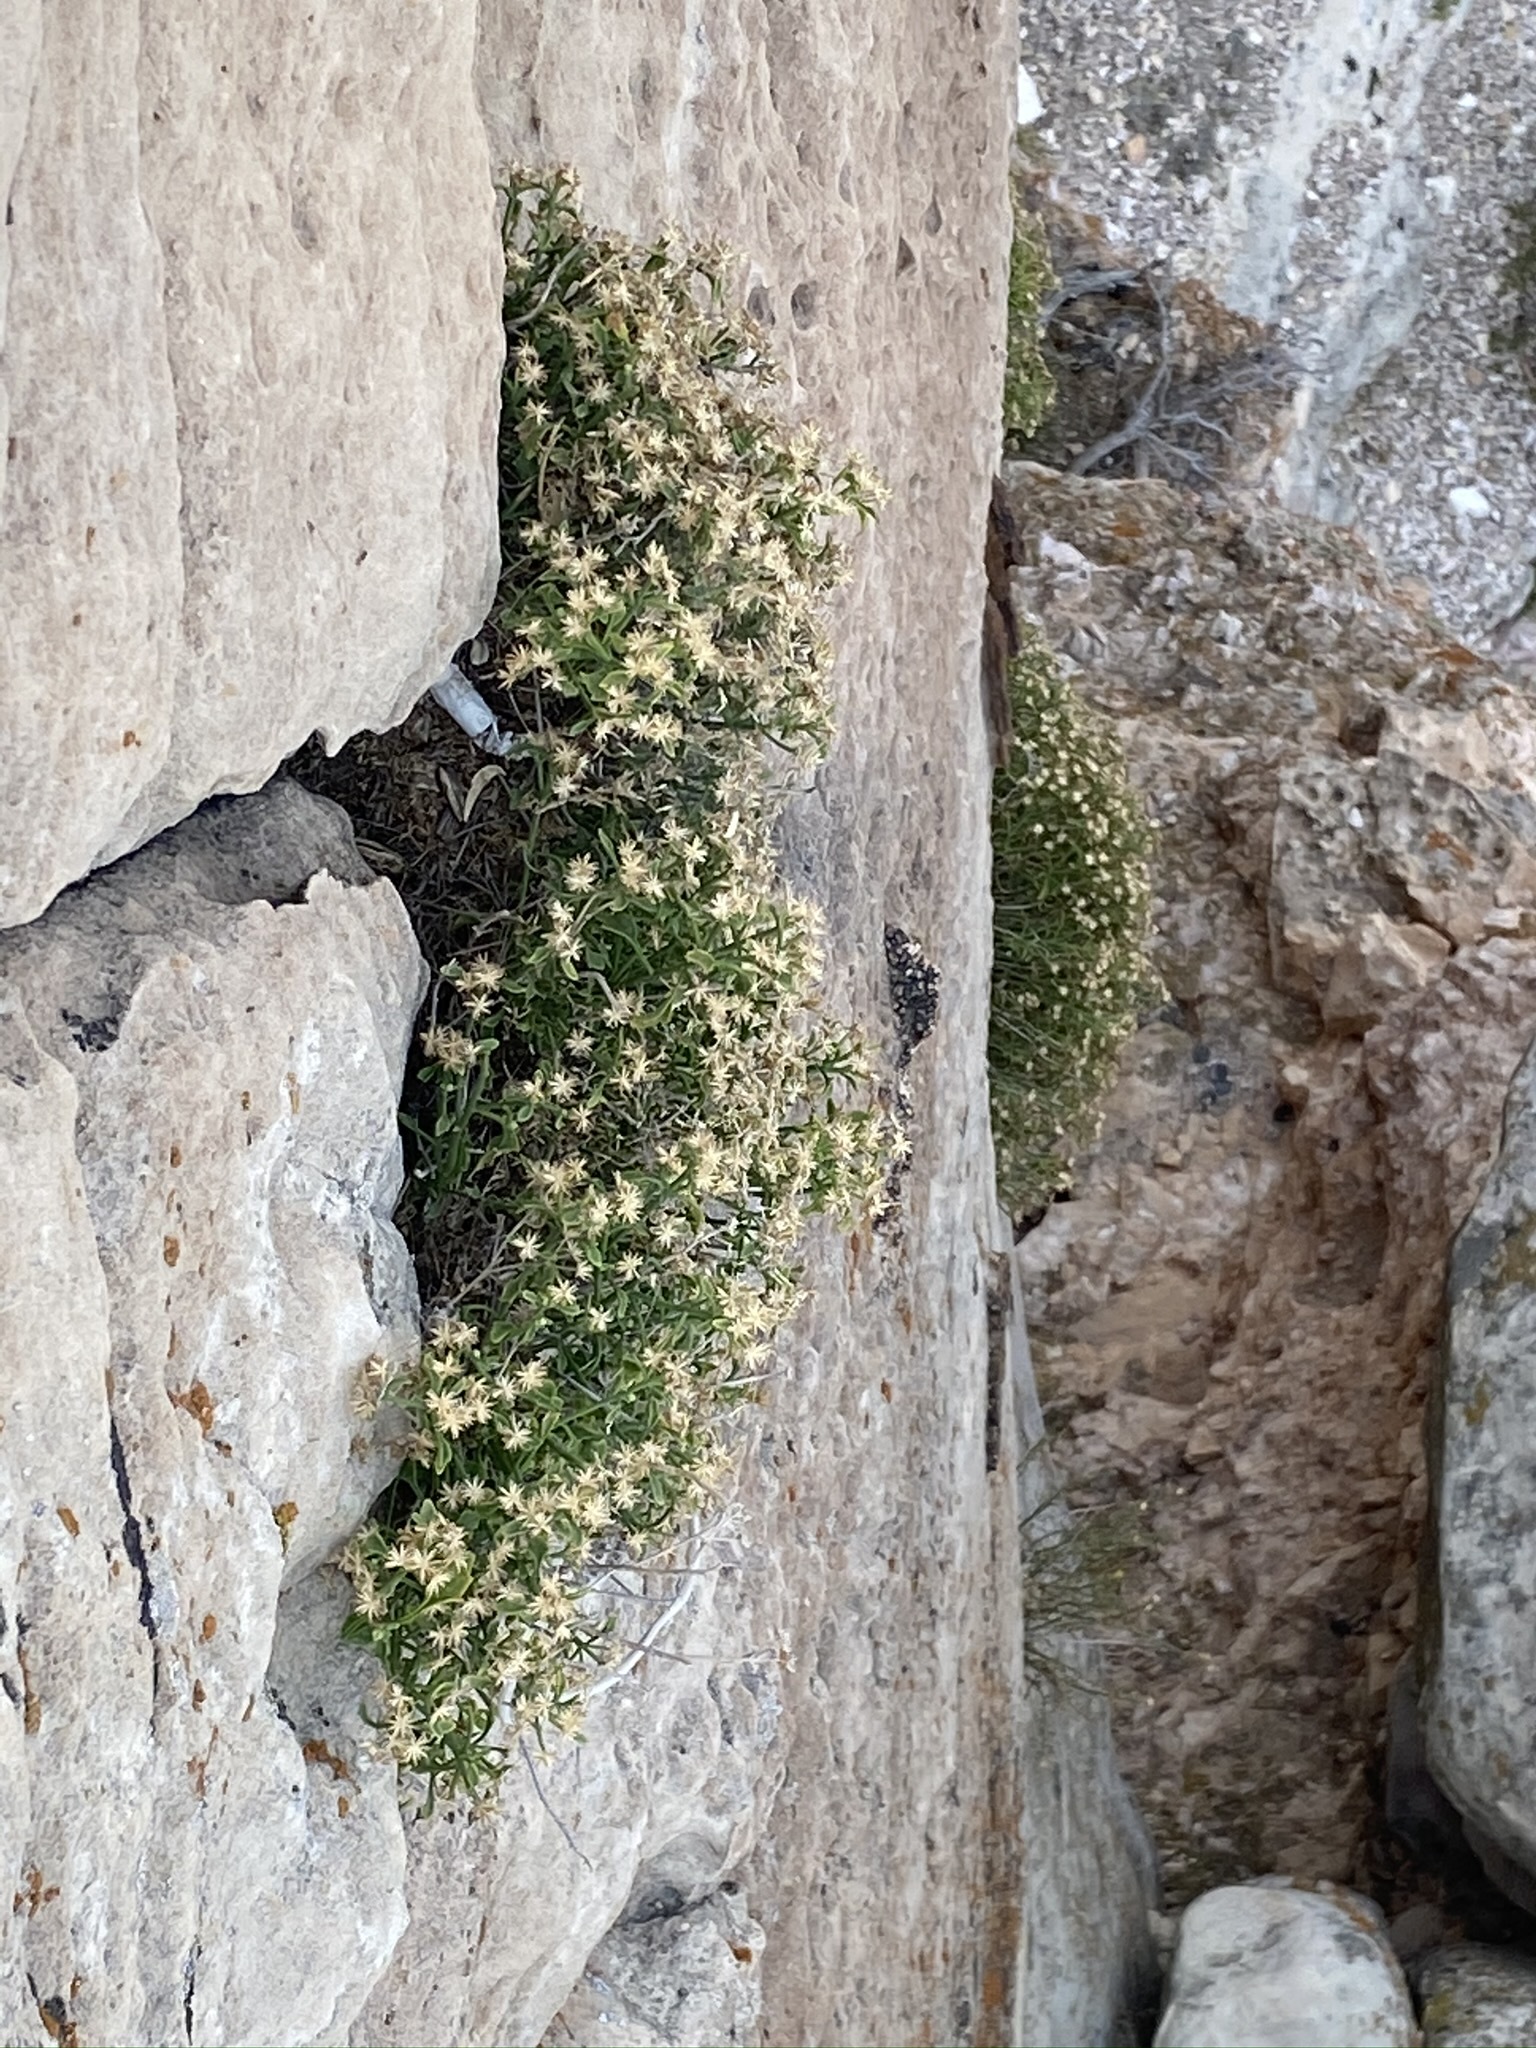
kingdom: Plantae
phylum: Tracheophyta
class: Magnoliopsida
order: Asterales
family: Asteraceae
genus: Laphamia
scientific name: Laphamia congesta
